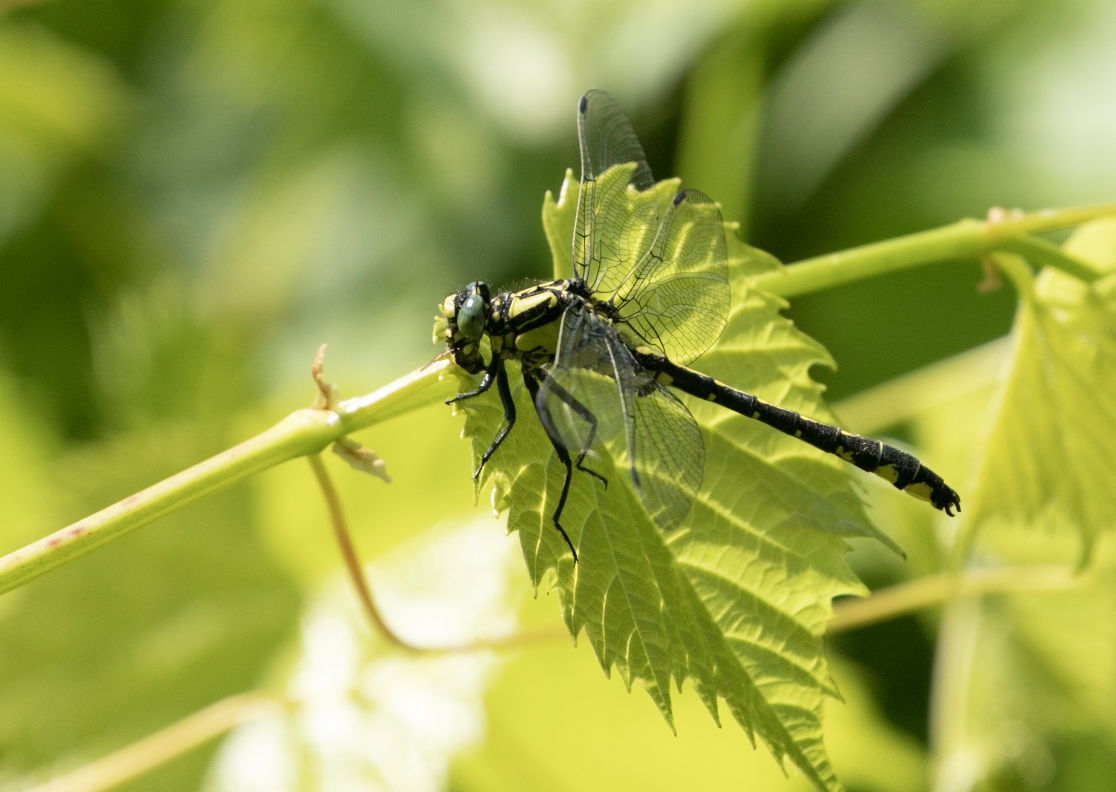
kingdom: Animalia
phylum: Arthropoda
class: Insecta
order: Odonata
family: Gomphidae
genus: Gomphus
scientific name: Gomphus vulgatissimus
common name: Club-tailed dragonfly
